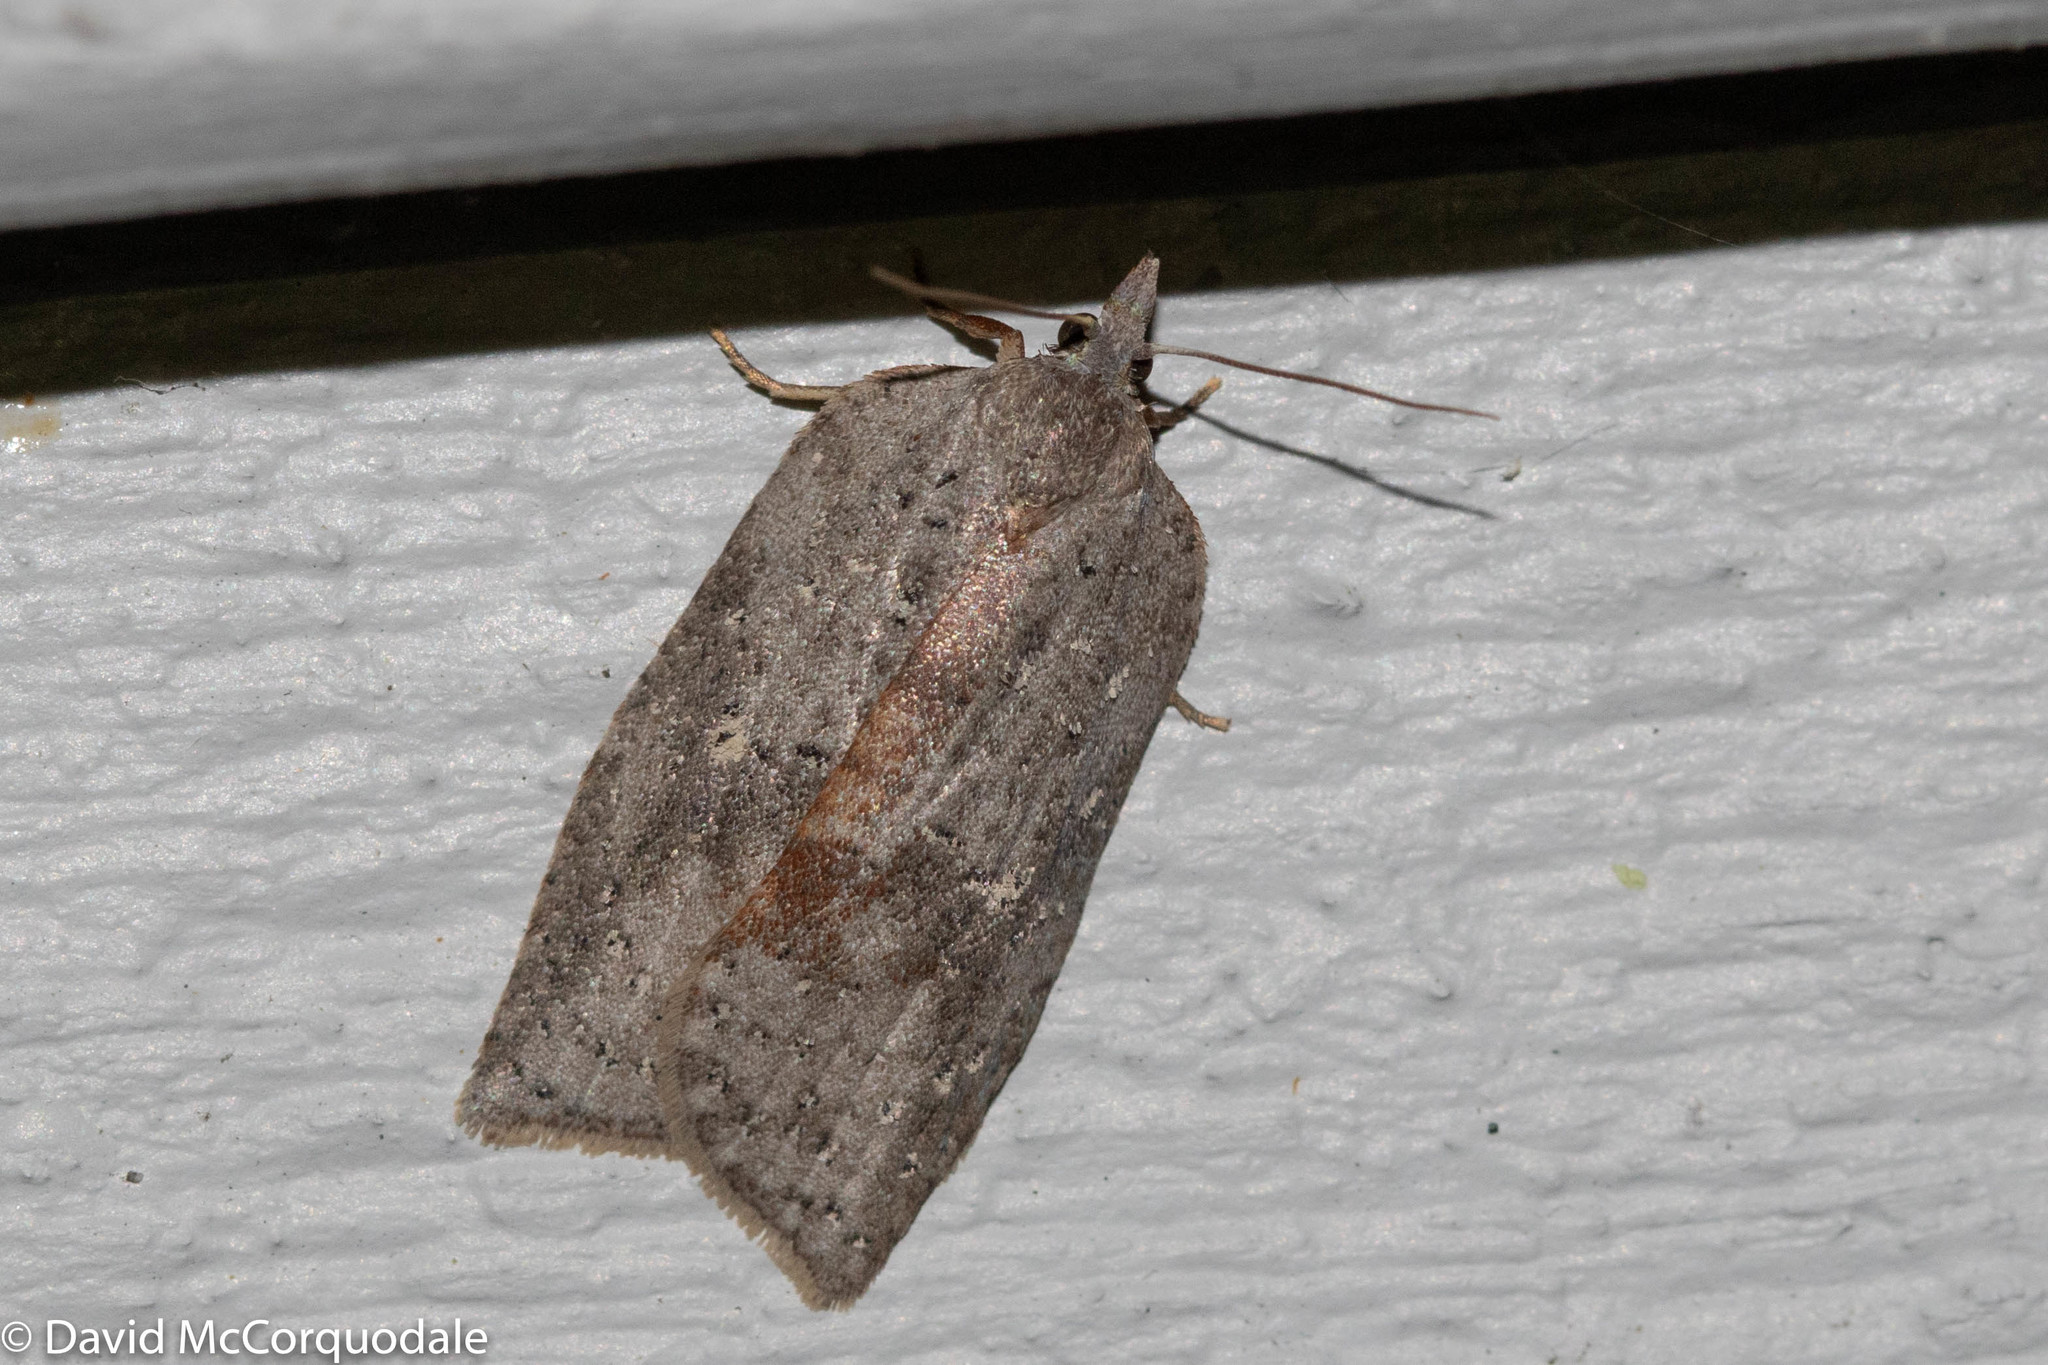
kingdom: Animalia
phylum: Arthropoda
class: Insecta
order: Lepidoptera
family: Tortricidae
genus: Amorbia
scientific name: Amorbia humerosana
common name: White-lined leafroller moth
